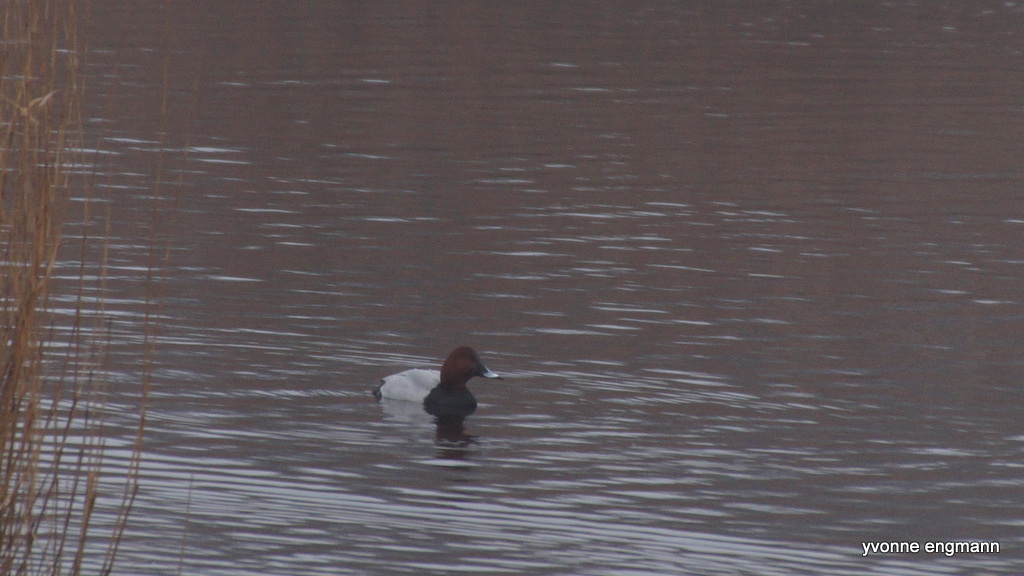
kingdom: Animalia
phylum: Chordata
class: Aves
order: Anseriformes
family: Anatidae
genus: Aythya
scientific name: Aythya ferina
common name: Common pochard
